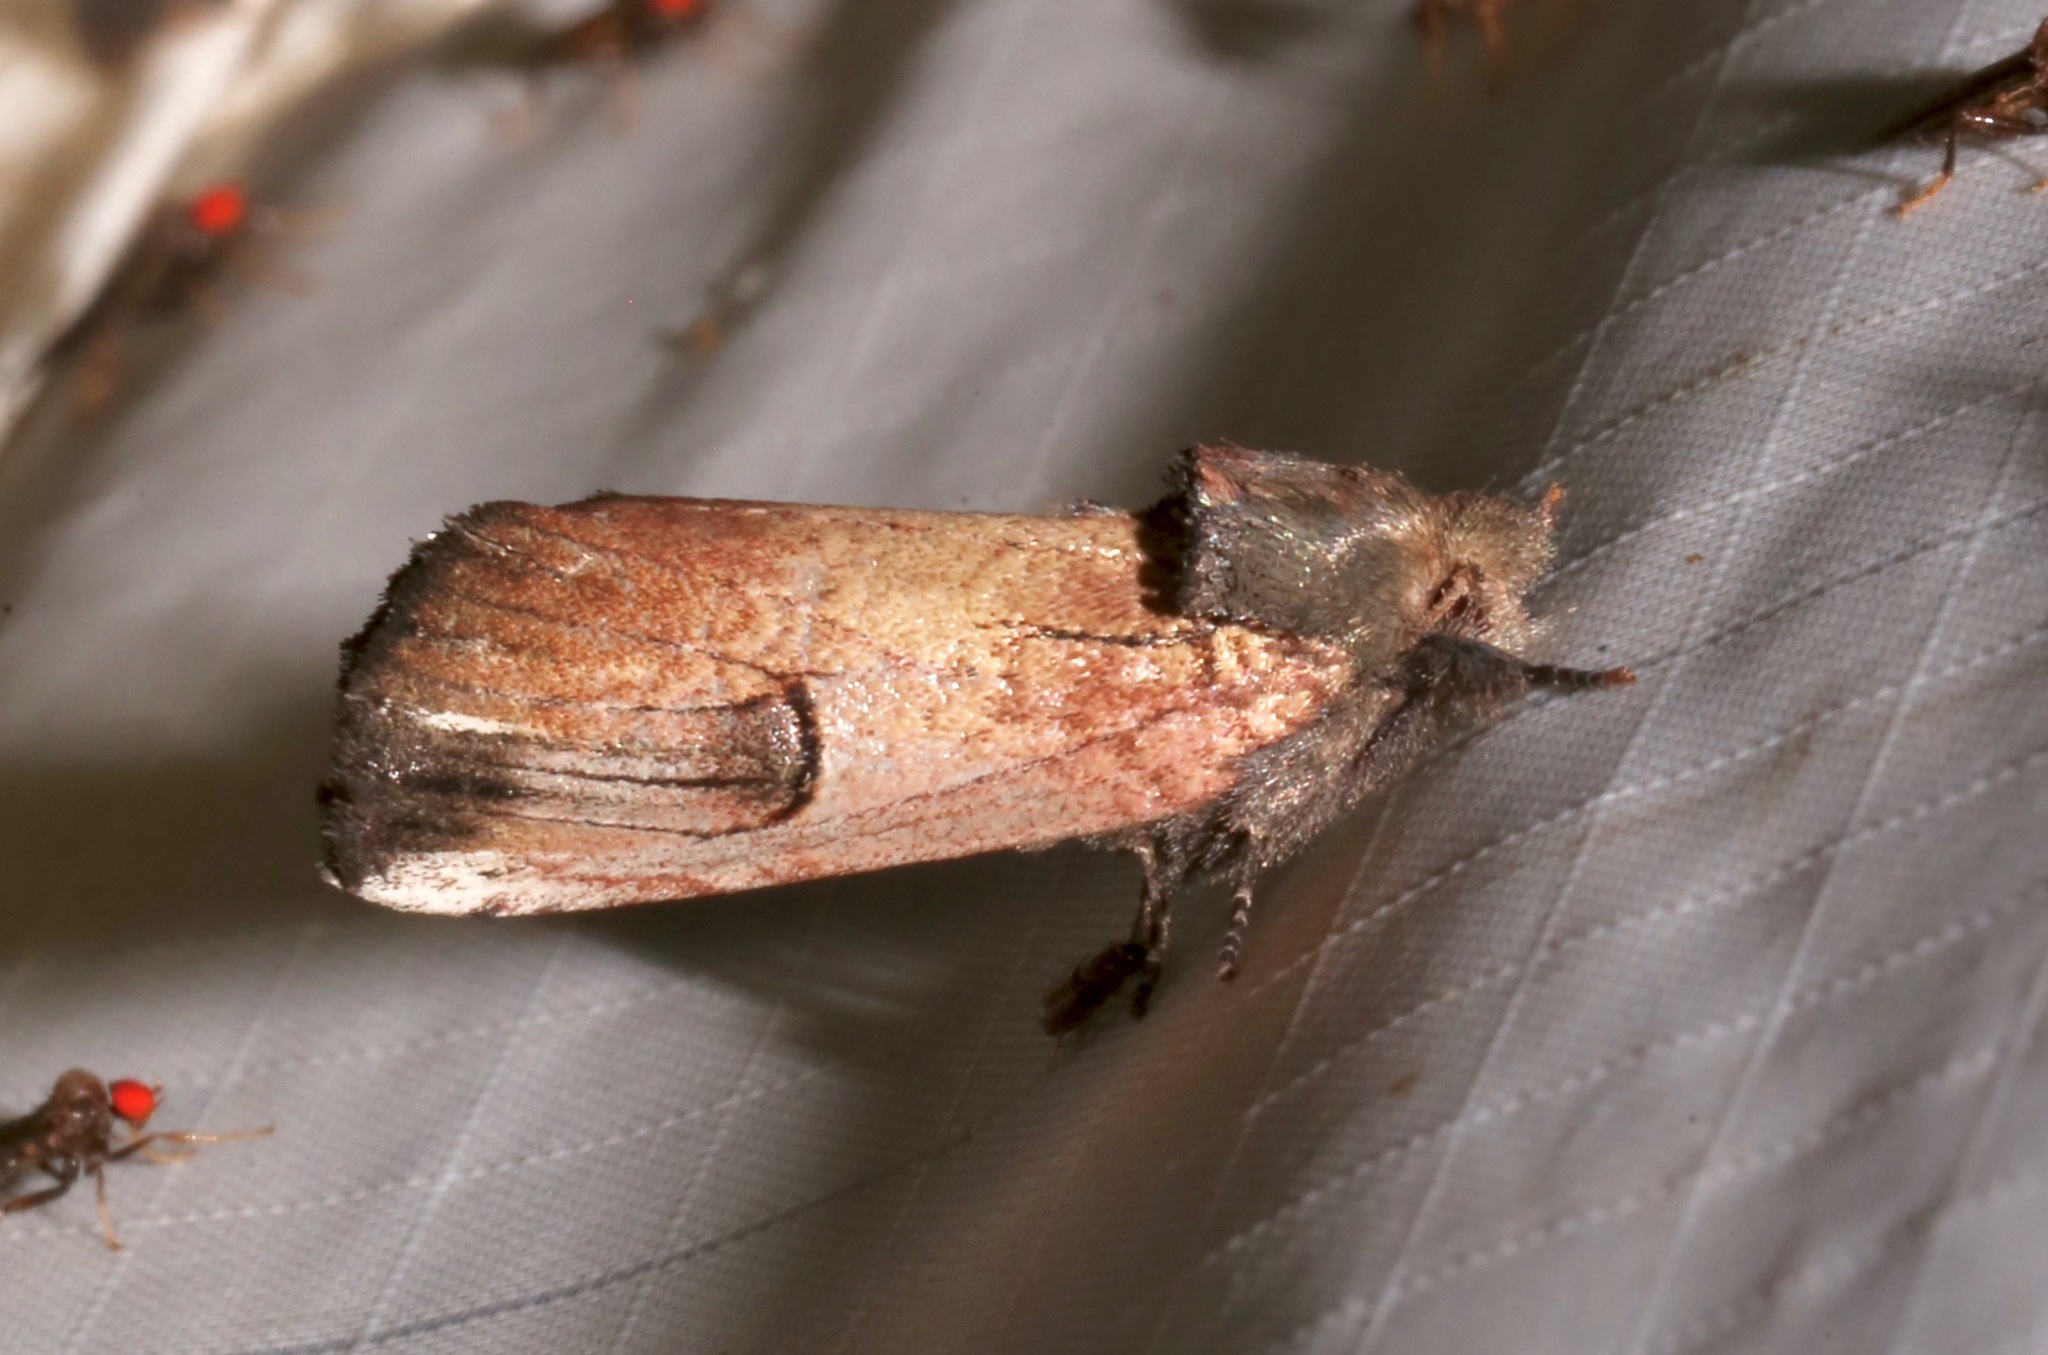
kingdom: Animalia
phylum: Arthropoda
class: Insecta
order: Lepidoptera
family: Notodontidae
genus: Schizura
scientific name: Schizura badia
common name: Chestnut schizura
